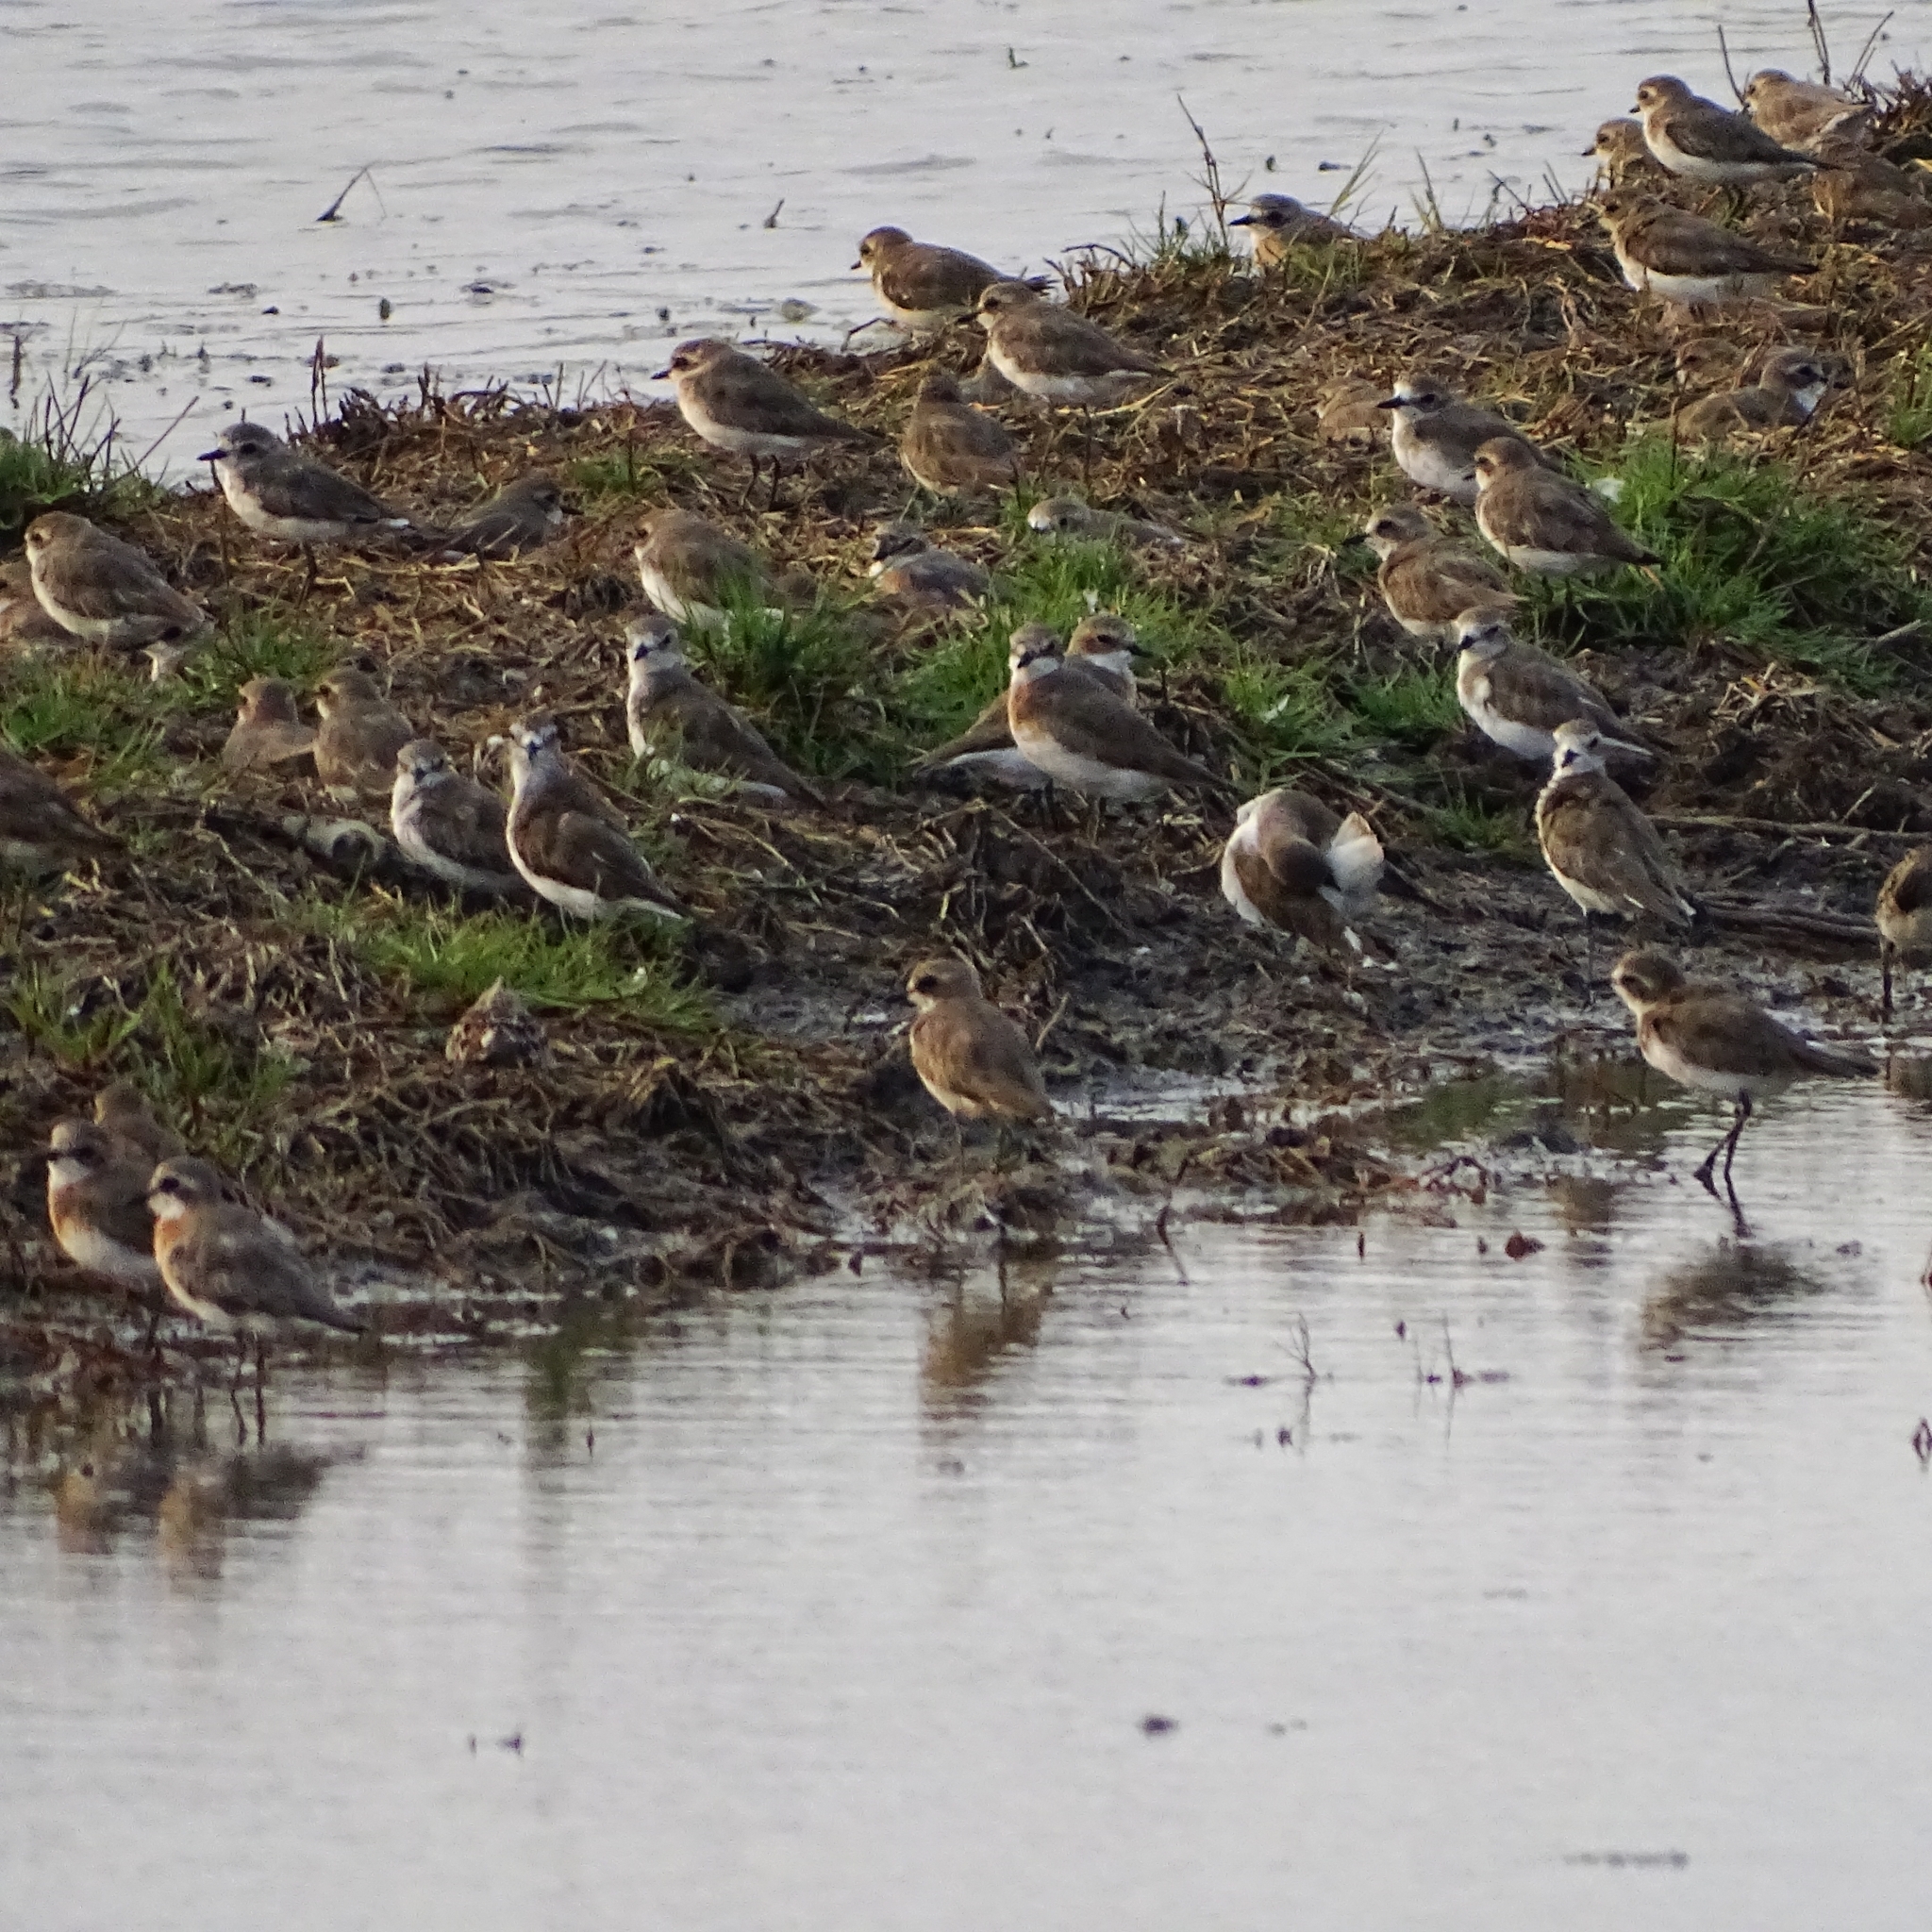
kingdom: Animalia
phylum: Chordata
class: Aves
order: Charadriiformes
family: Charadriidae
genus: Anarhynchus
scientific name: Anarhynchus
